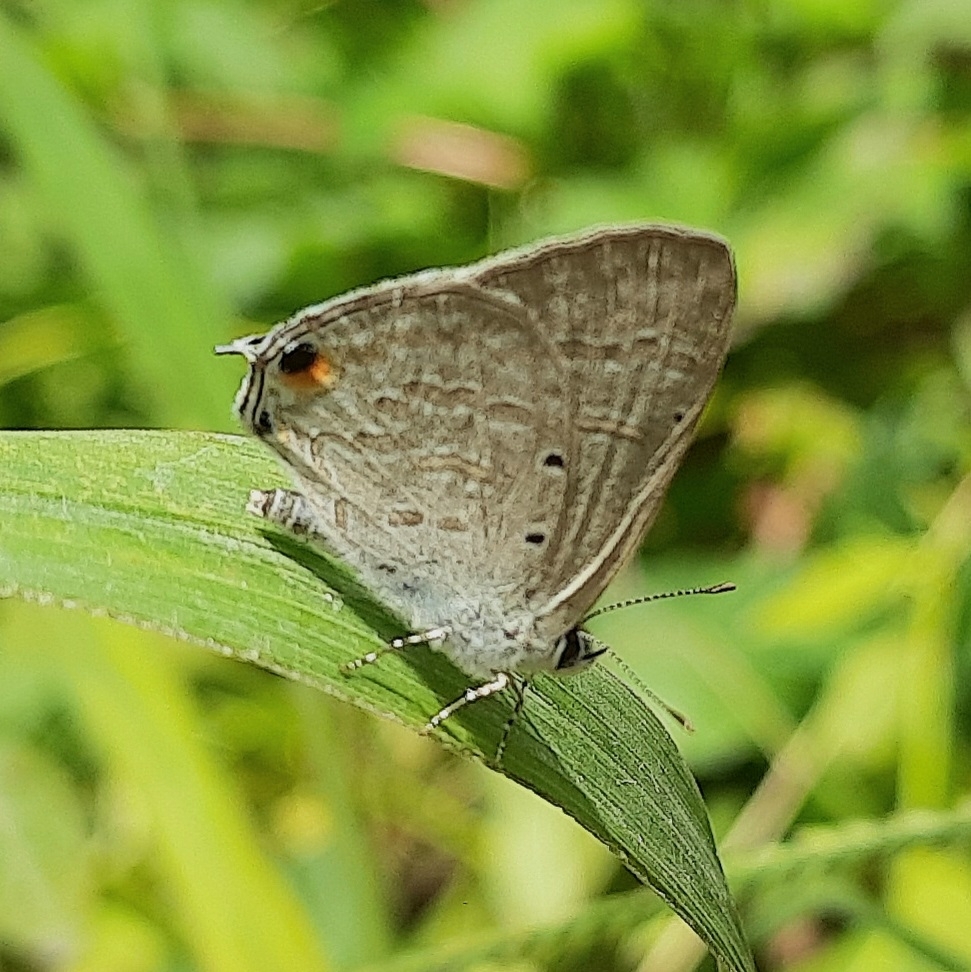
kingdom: Animalia
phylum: Arthropoda
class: Insecta
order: Lepidoptera
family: Lycaenidae
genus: Catochrysops
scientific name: Catochrysops strabo
